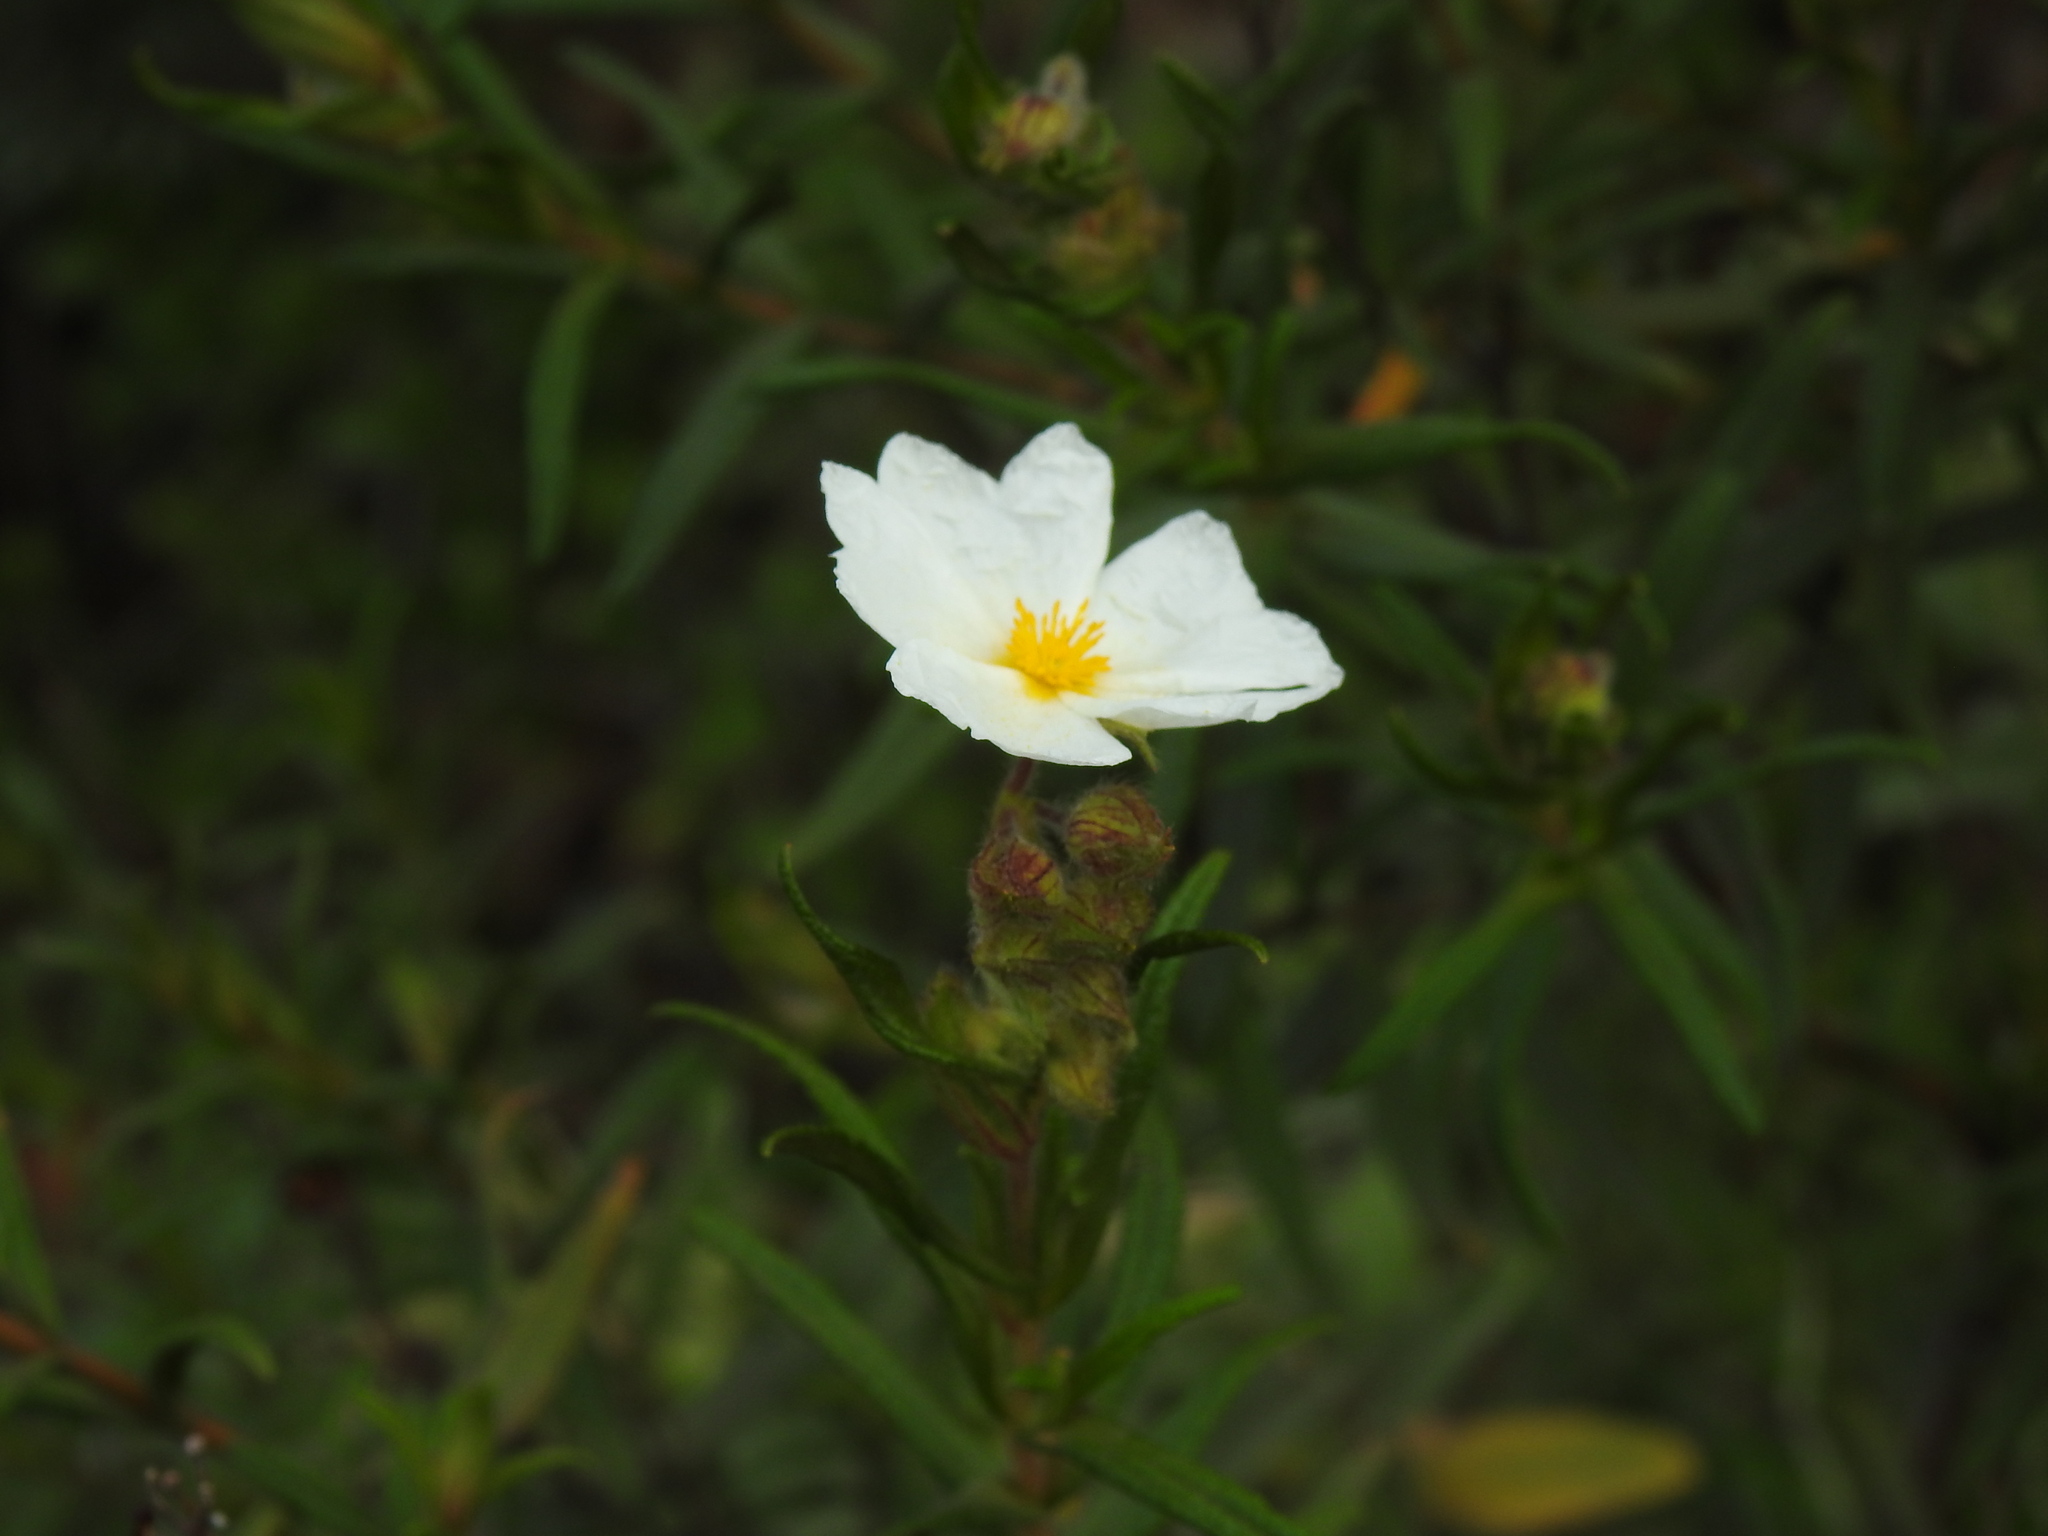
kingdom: Plantae
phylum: Tracheophyta
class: Magnoliopsida
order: Malvales
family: Cistaceae
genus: Cistus
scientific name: Cistus monspeliensis
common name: Montpelier cistus
